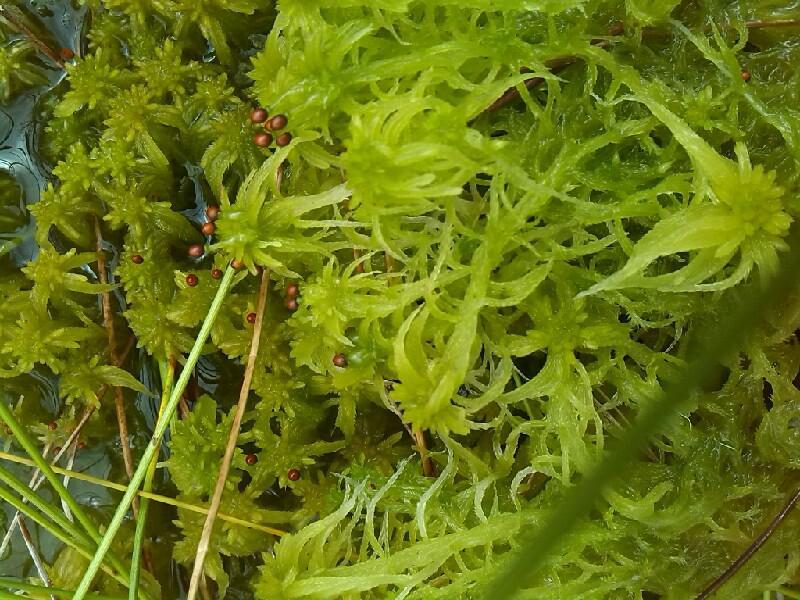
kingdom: Plantae
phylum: Bryophyta
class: Sphagnopsida
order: Sphagnales
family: Sphagnaceae
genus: Sphagnum
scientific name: Sphagnum fallax
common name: Flat-top peat moss
